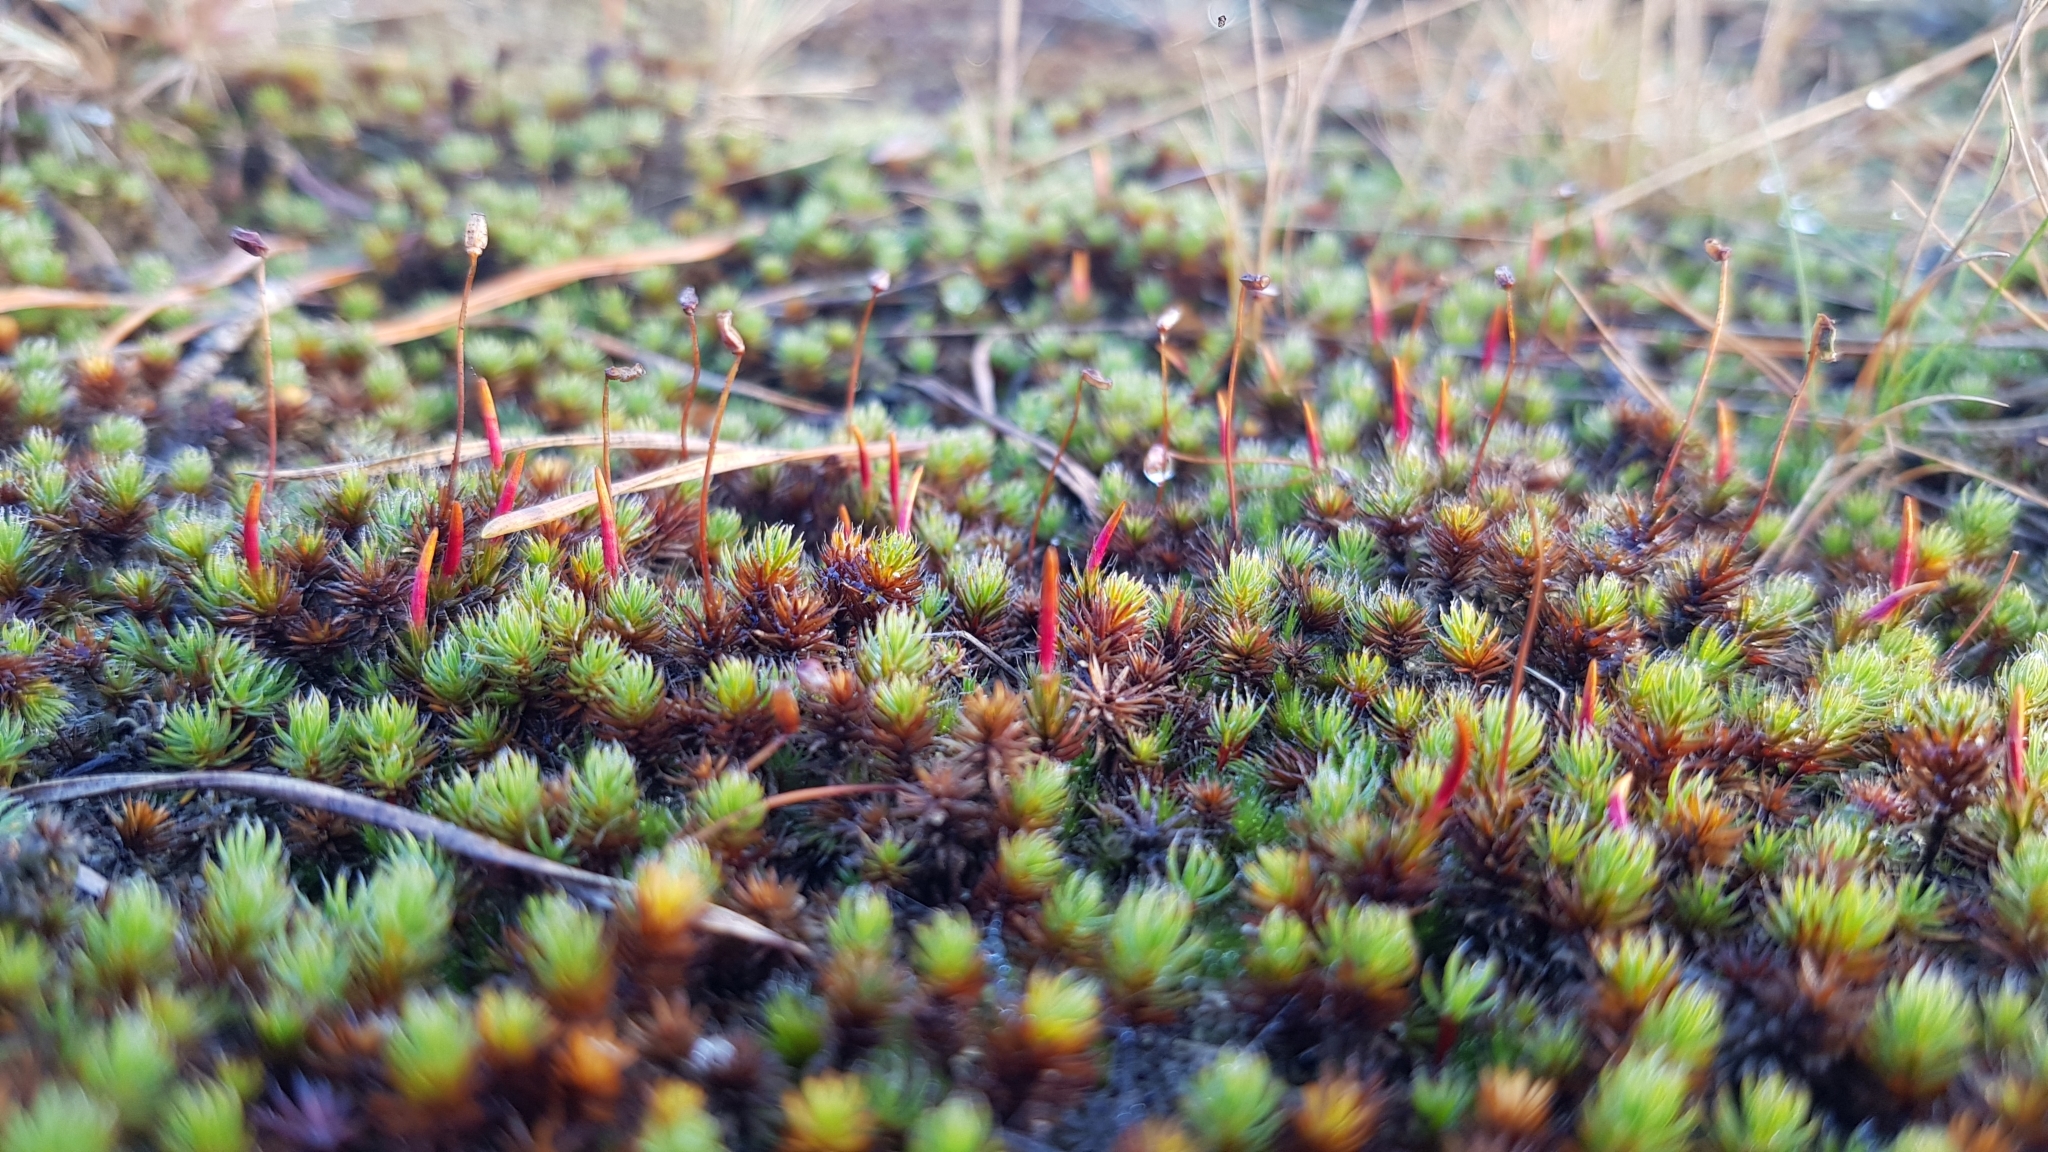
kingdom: Plantae
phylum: Bryophyta
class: Polytrichopsida
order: Polytrichales
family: Polytrichaceae
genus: Polytrichum
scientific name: Polytrichum piliferum
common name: Bristly haircap
